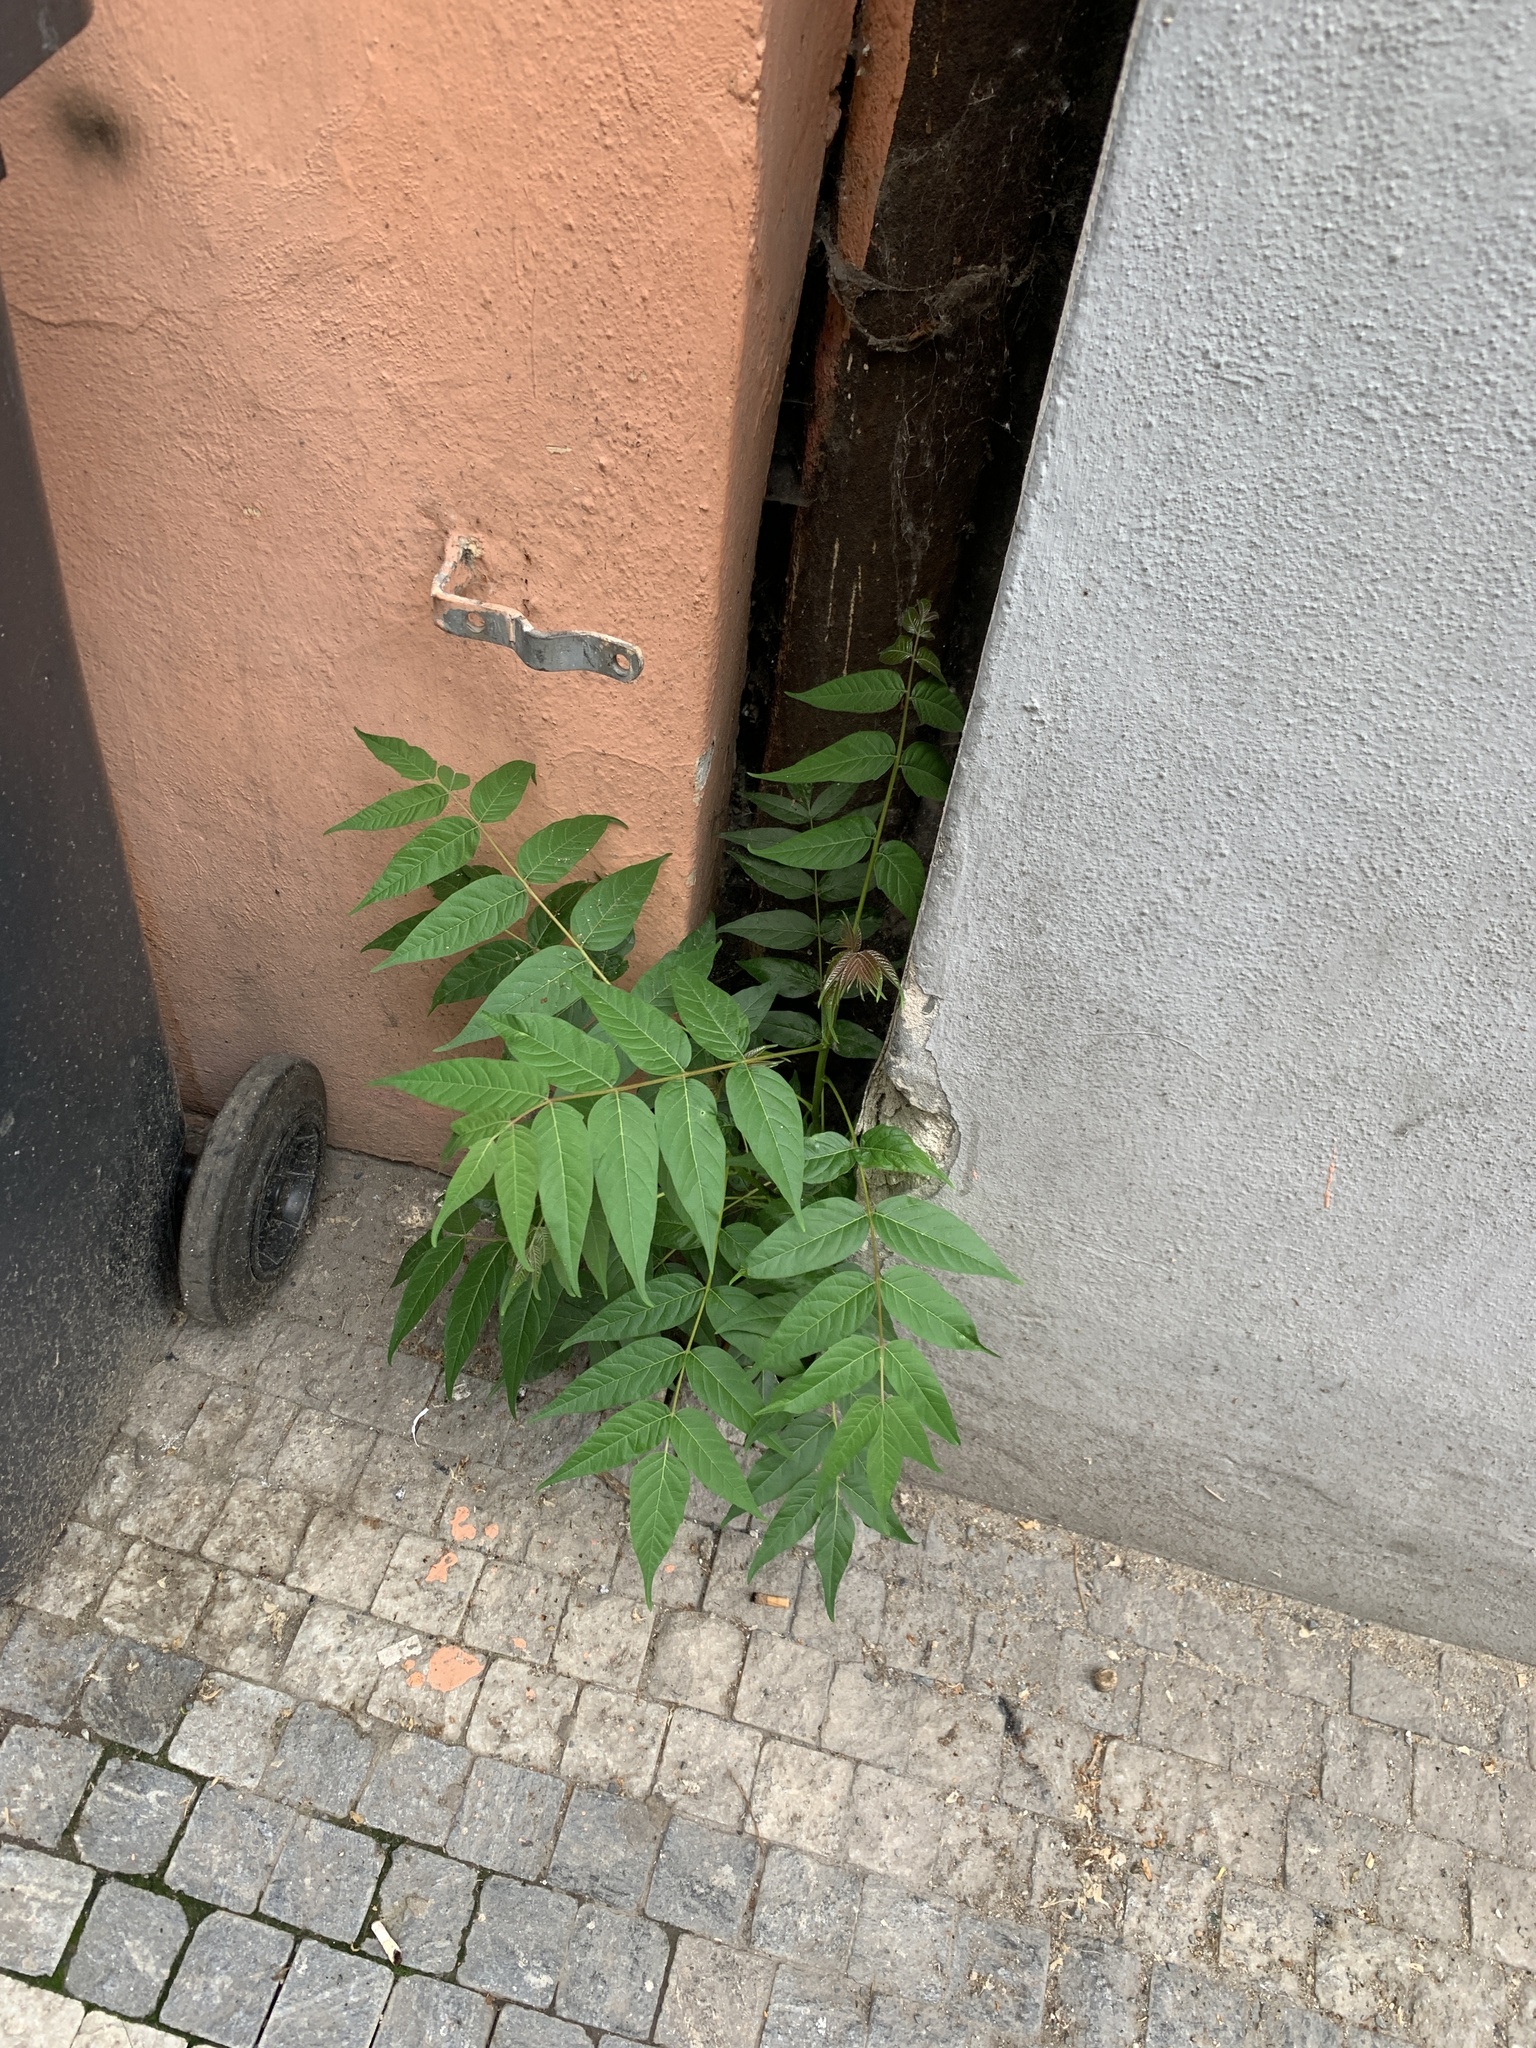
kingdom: Plantae
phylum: Tracheophyta
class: Magnoliopsida
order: Sapindales
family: Simaroubaceae
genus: Ailanthus
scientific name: Ailanthus altissima
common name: Tree-of-heaven
